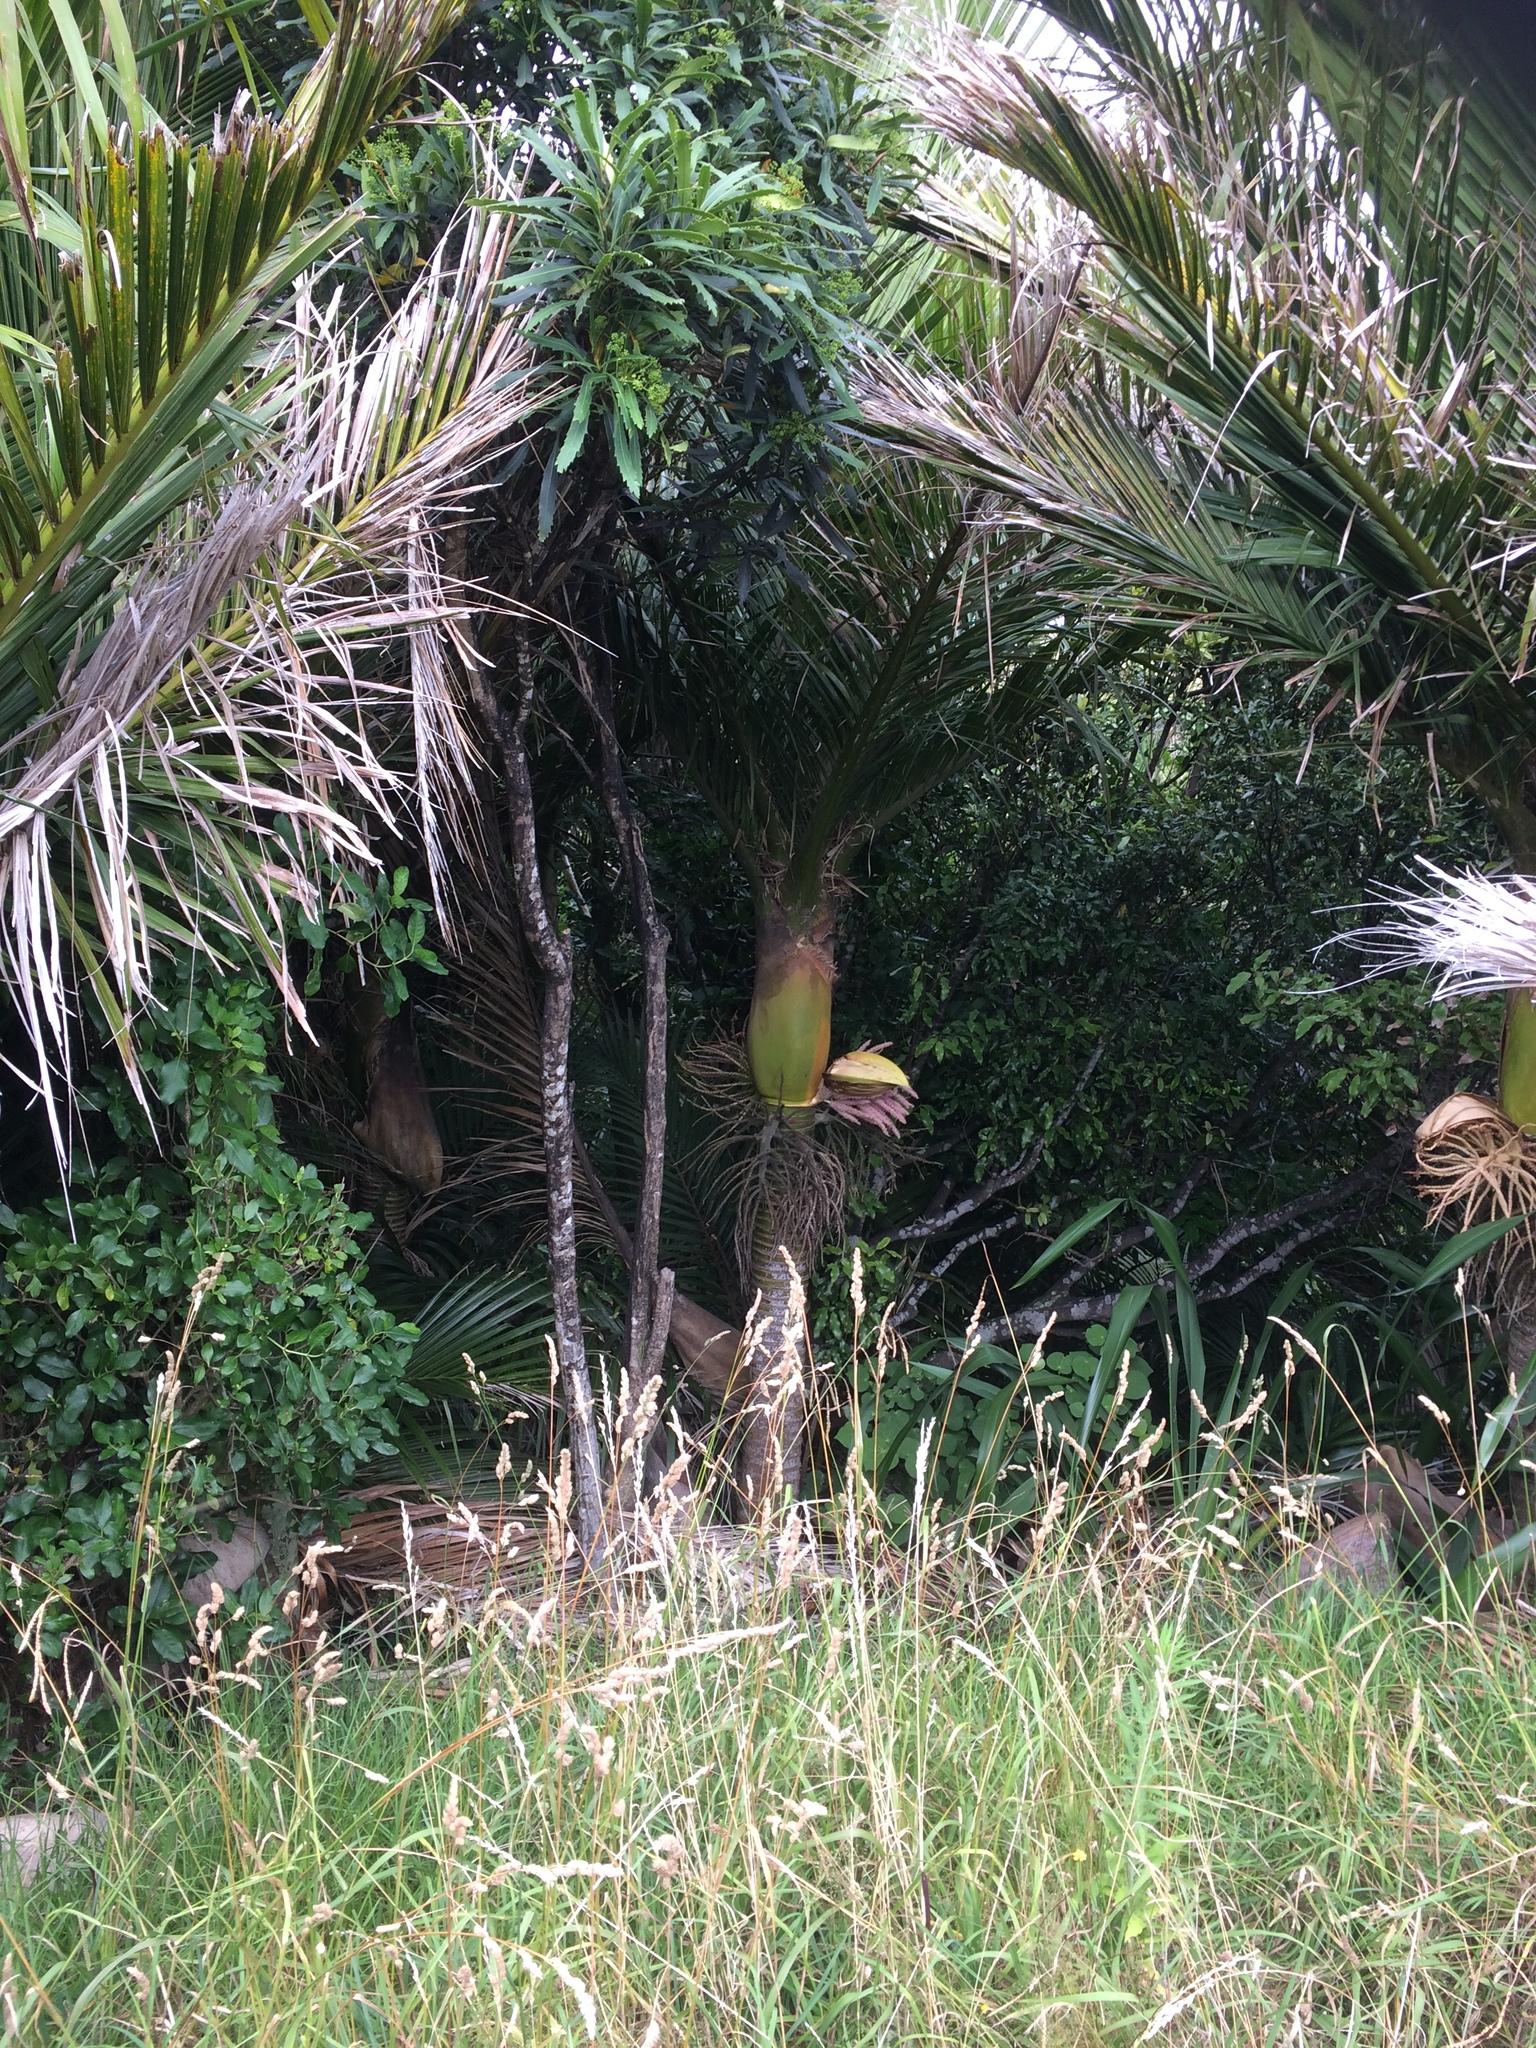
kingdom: Plantae
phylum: Tracheophyta
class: Liliopsida
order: Arecales
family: Arecaceae
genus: Rhopalostylis
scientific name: Rhopalostylis sapida
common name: Feather-duster palm
